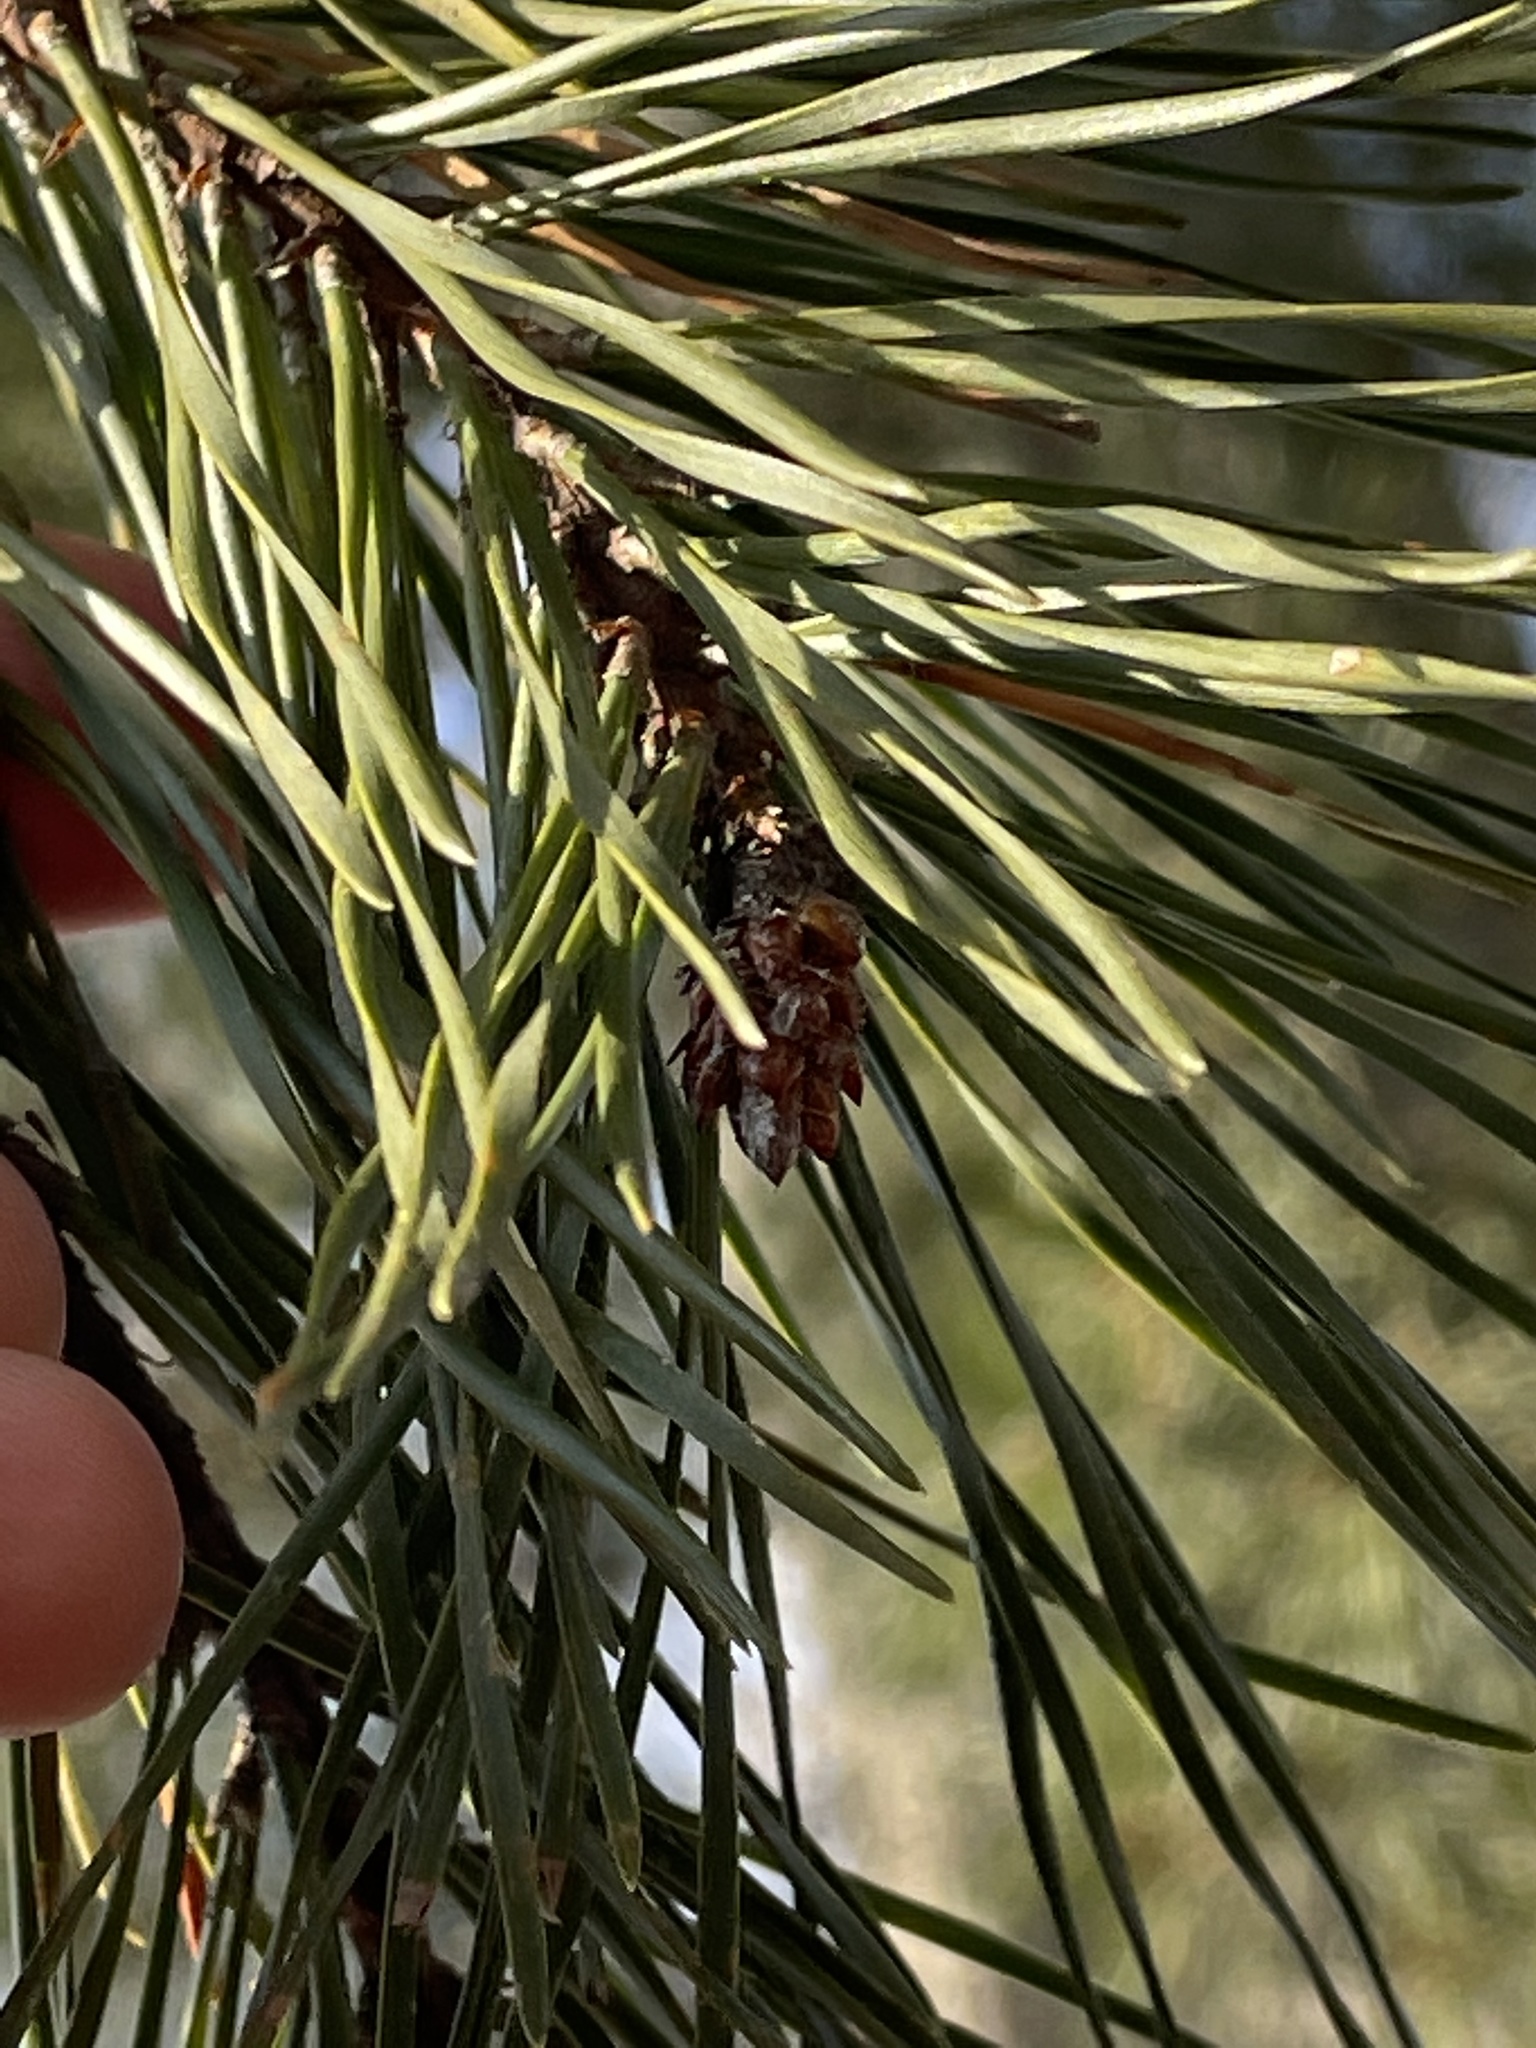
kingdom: Plantae
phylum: Tracheophyta
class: Pinopsida
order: Pinales
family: Pinaceae
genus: Pinus
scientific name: Pinus virginiana
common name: Scrub pine
